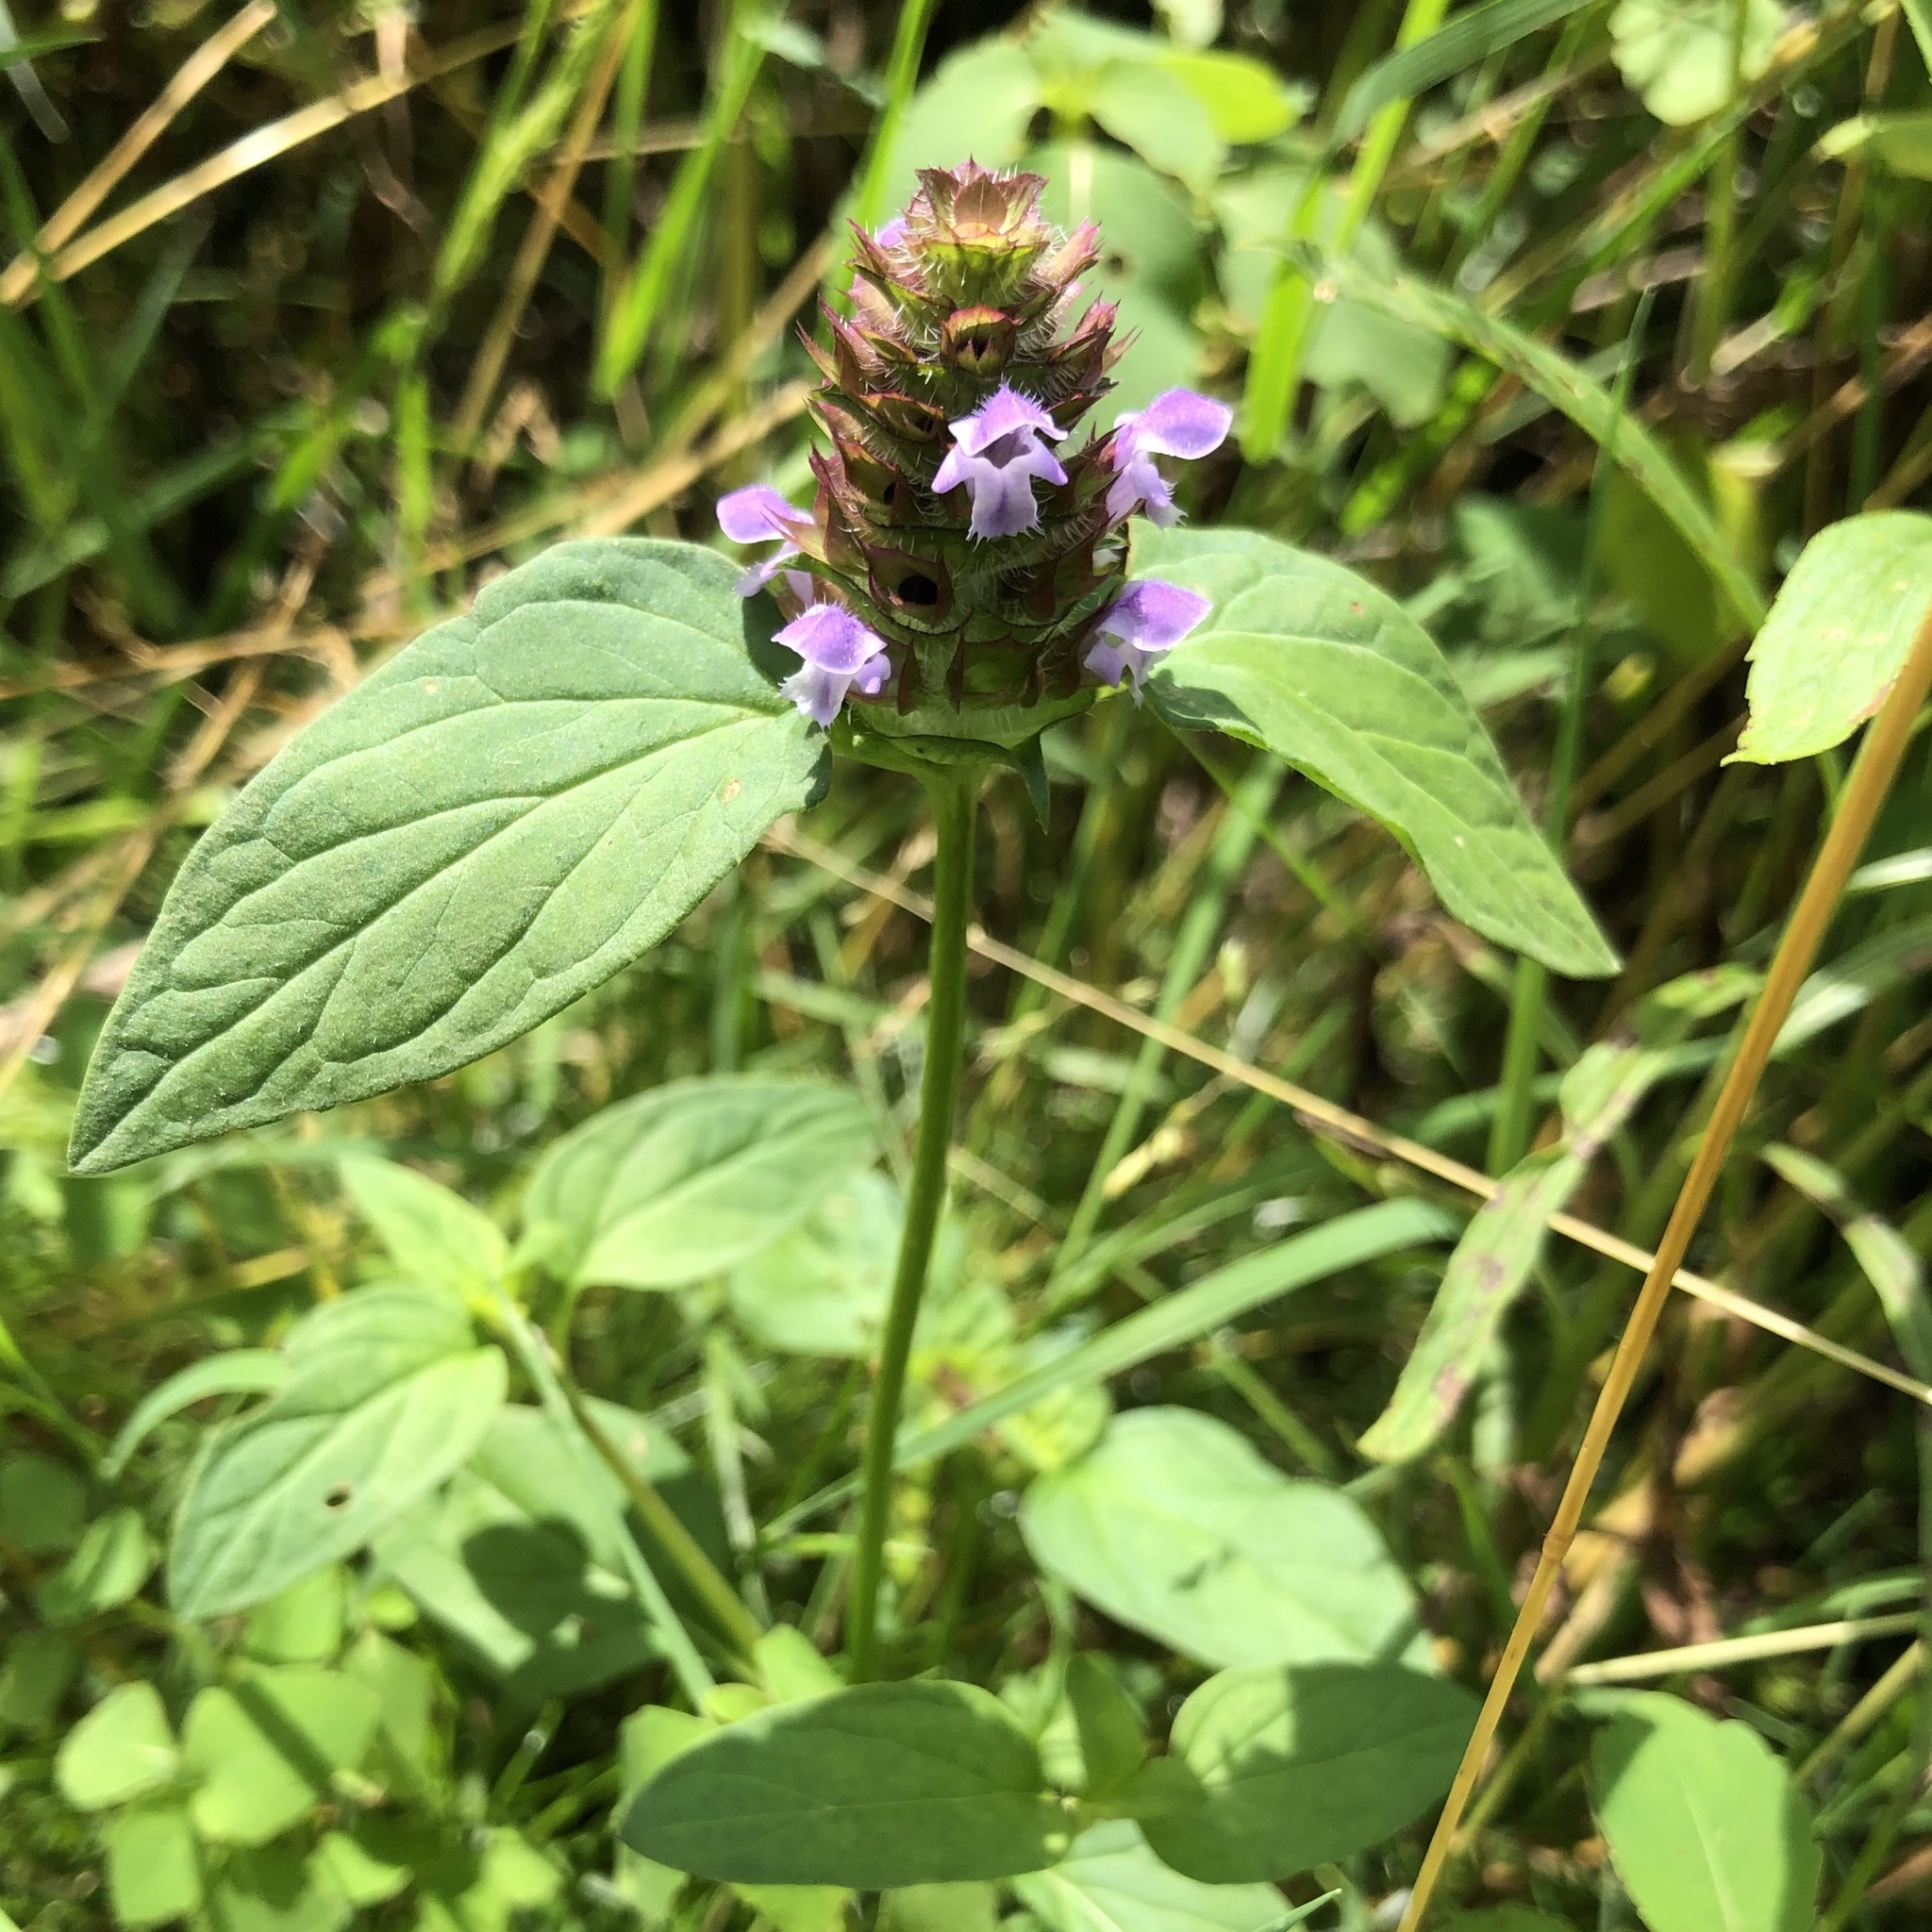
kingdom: Plantae
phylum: Tracheophyta
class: Magnoliopsida
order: Lamiales
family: Lamiaceae
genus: Prunella
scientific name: Prunella vulgaris
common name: Heal-all
